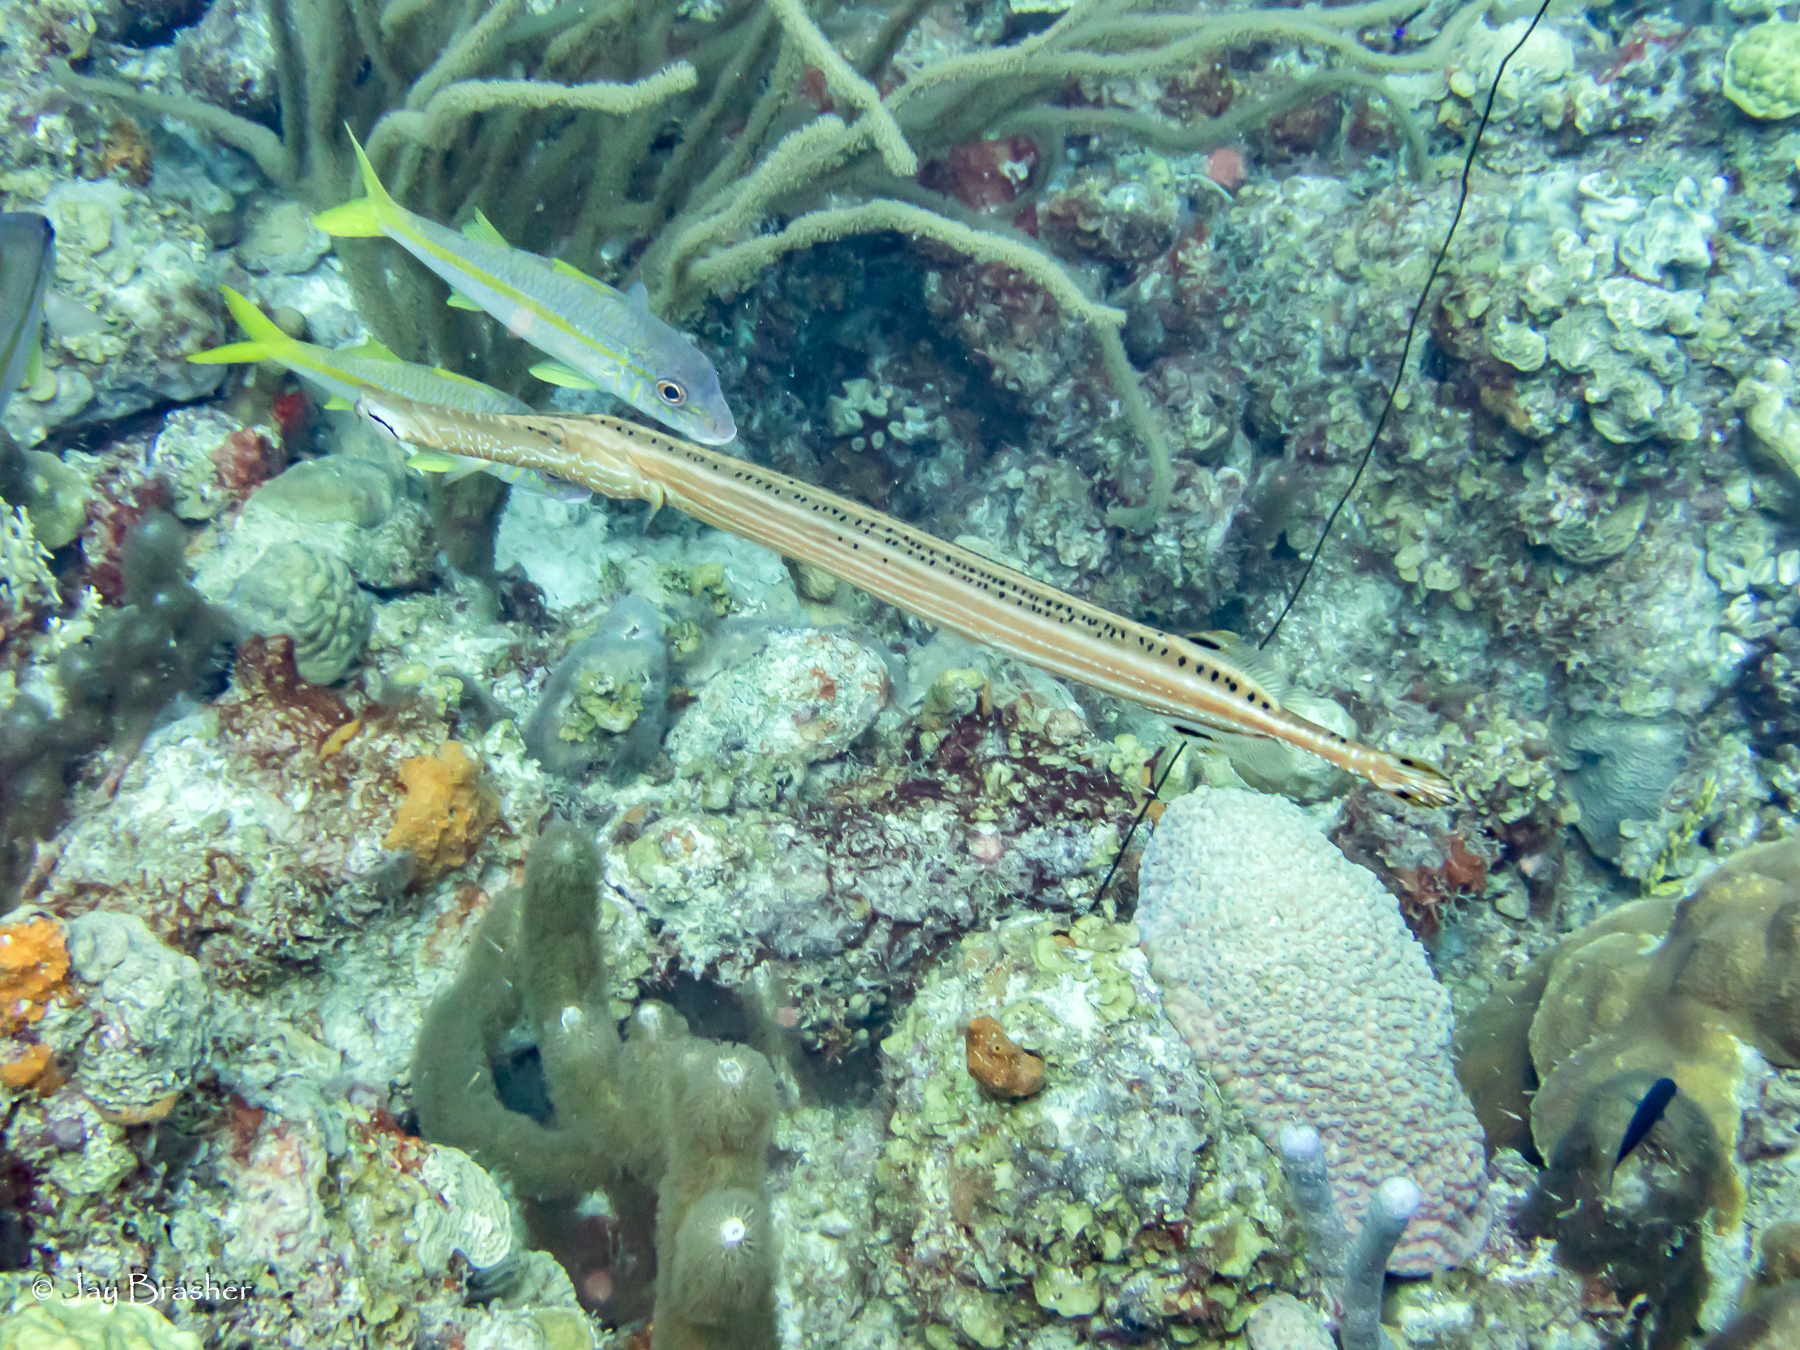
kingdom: Animalia
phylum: Chordata
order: Perciformes
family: Mullidae
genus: Mulloidichthys
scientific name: Mulloidichthys martinicus
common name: Yellow goatfish
